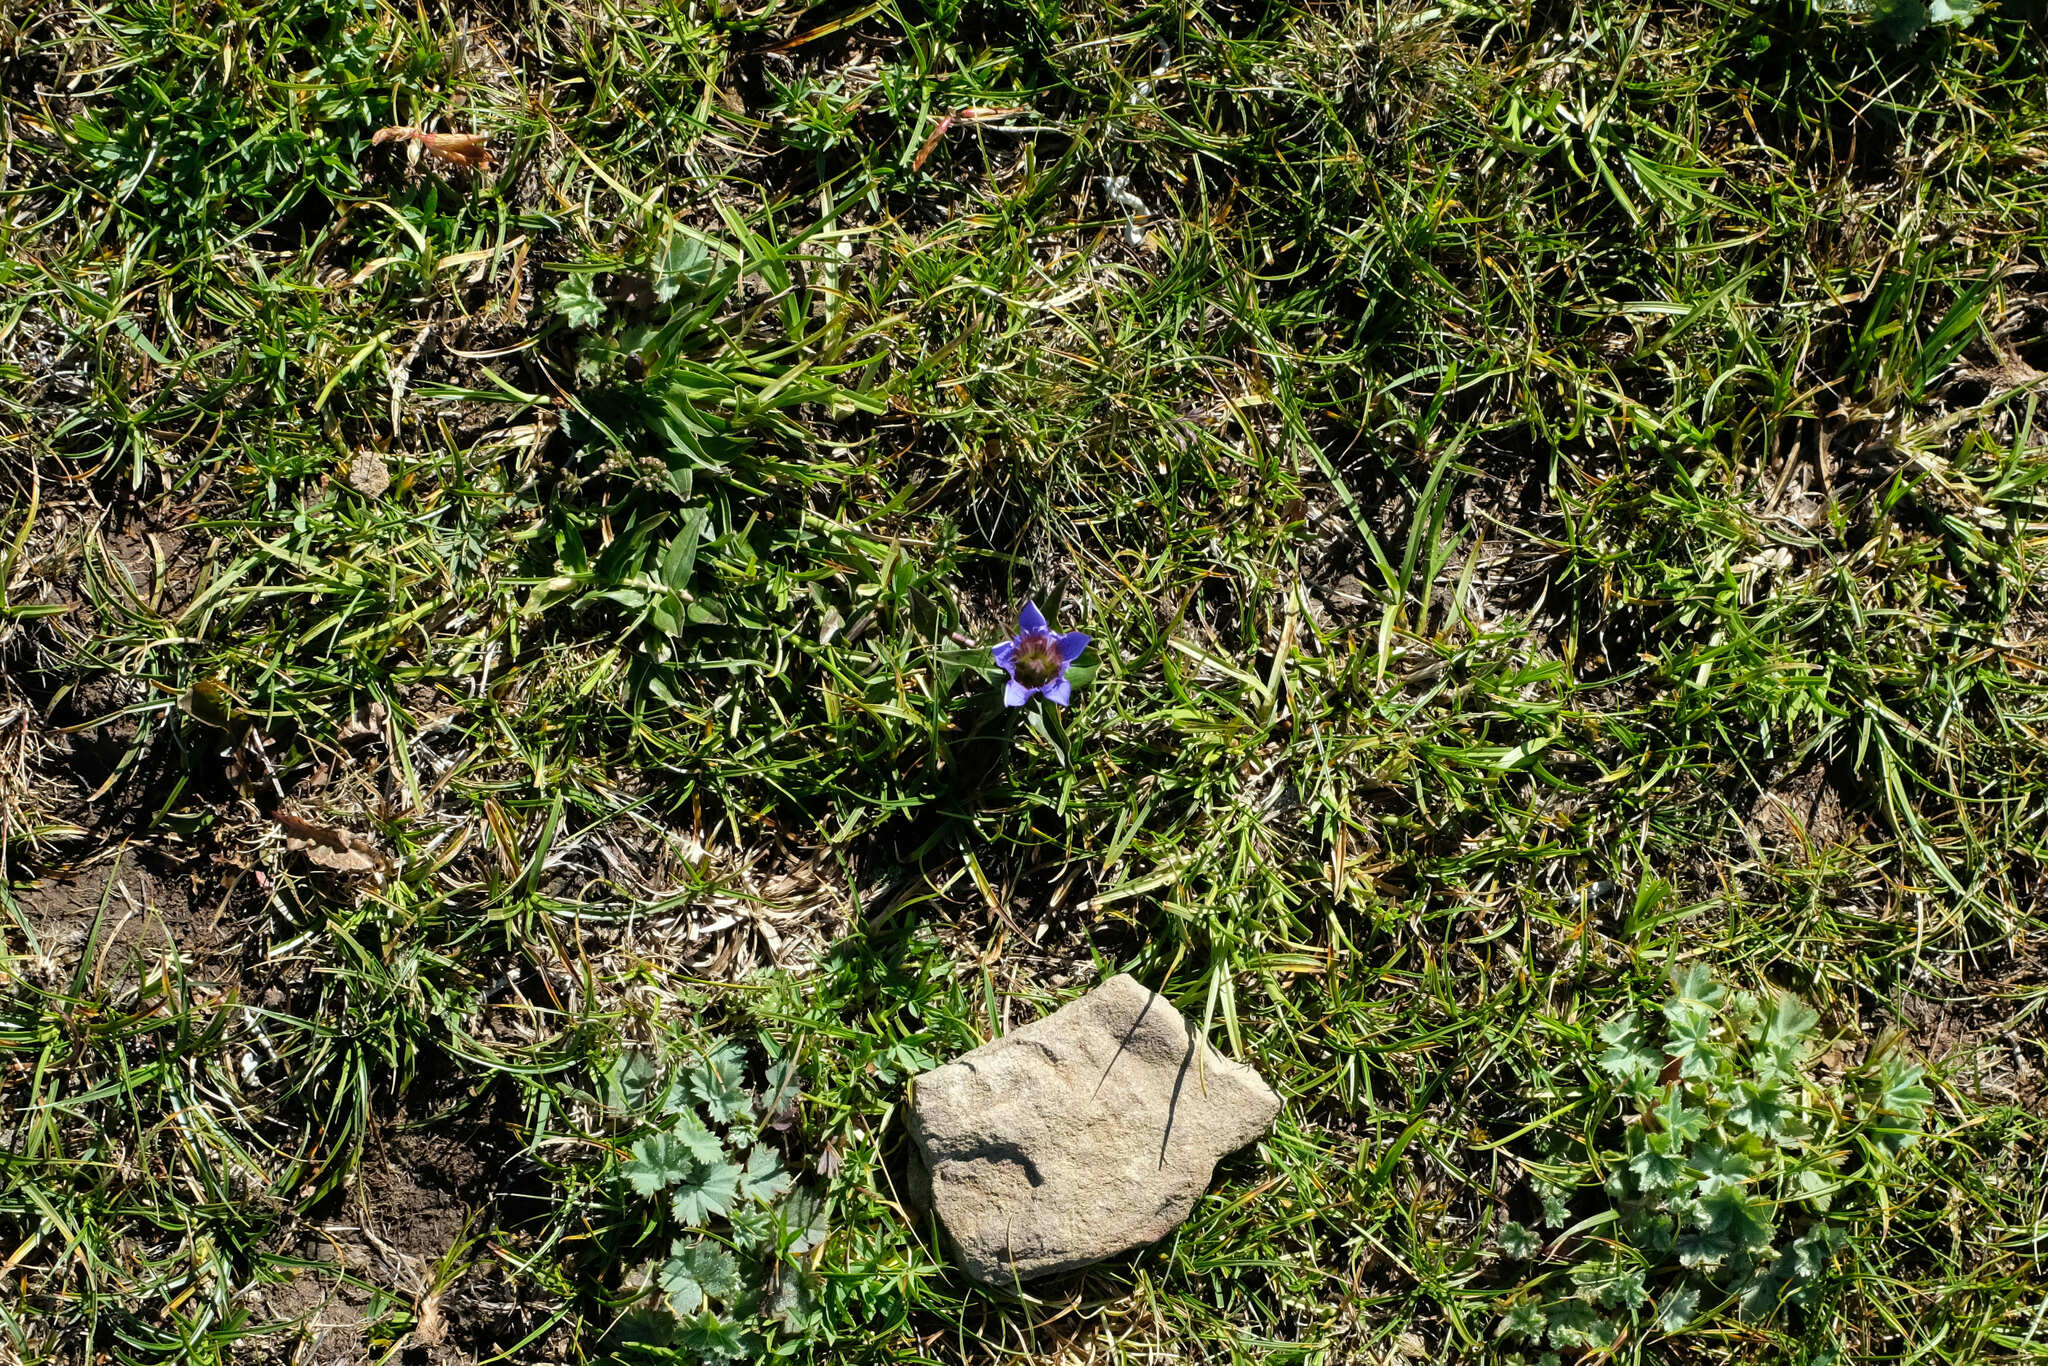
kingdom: Plantae
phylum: Tracheophyta
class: Magnoliopsida
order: Gentianales
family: Gentianaceae
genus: Gentiana
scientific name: Gentiana septemfida
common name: Crested gentian
